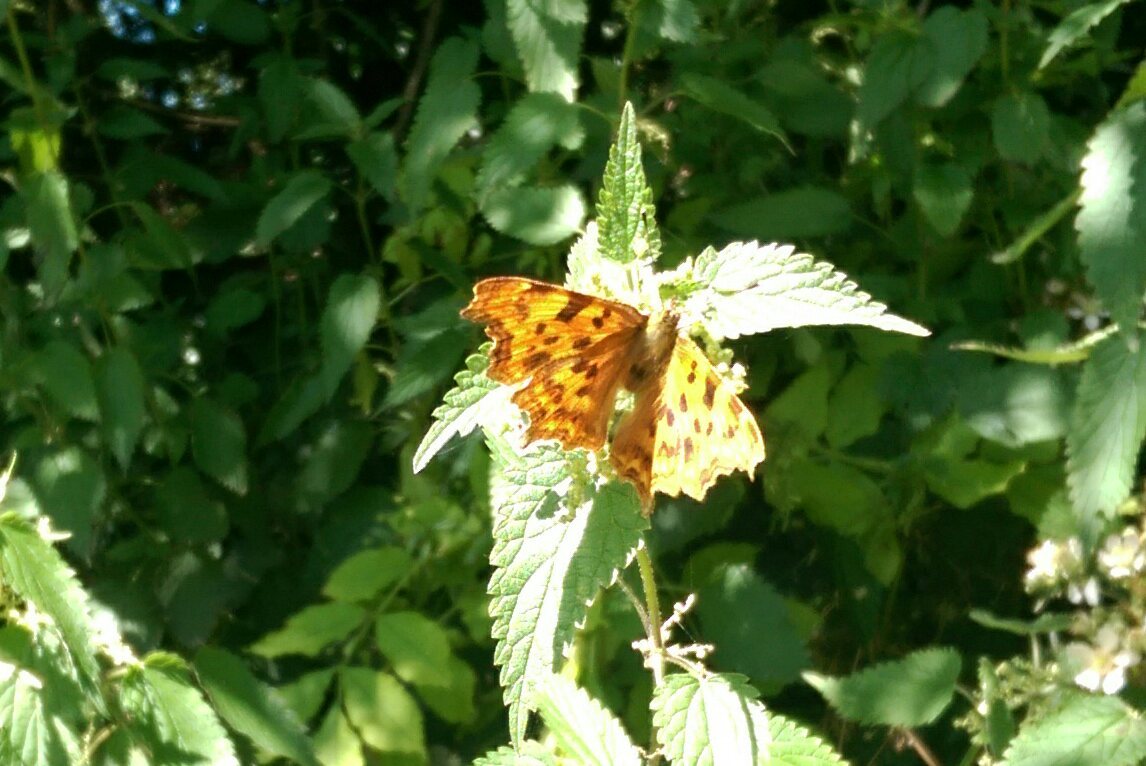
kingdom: Animalia
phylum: Arthropoda
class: Insecta
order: Lepidoptera
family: Nymphalidae
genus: Polygonia
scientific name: Polygonia c-album
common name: Comma
